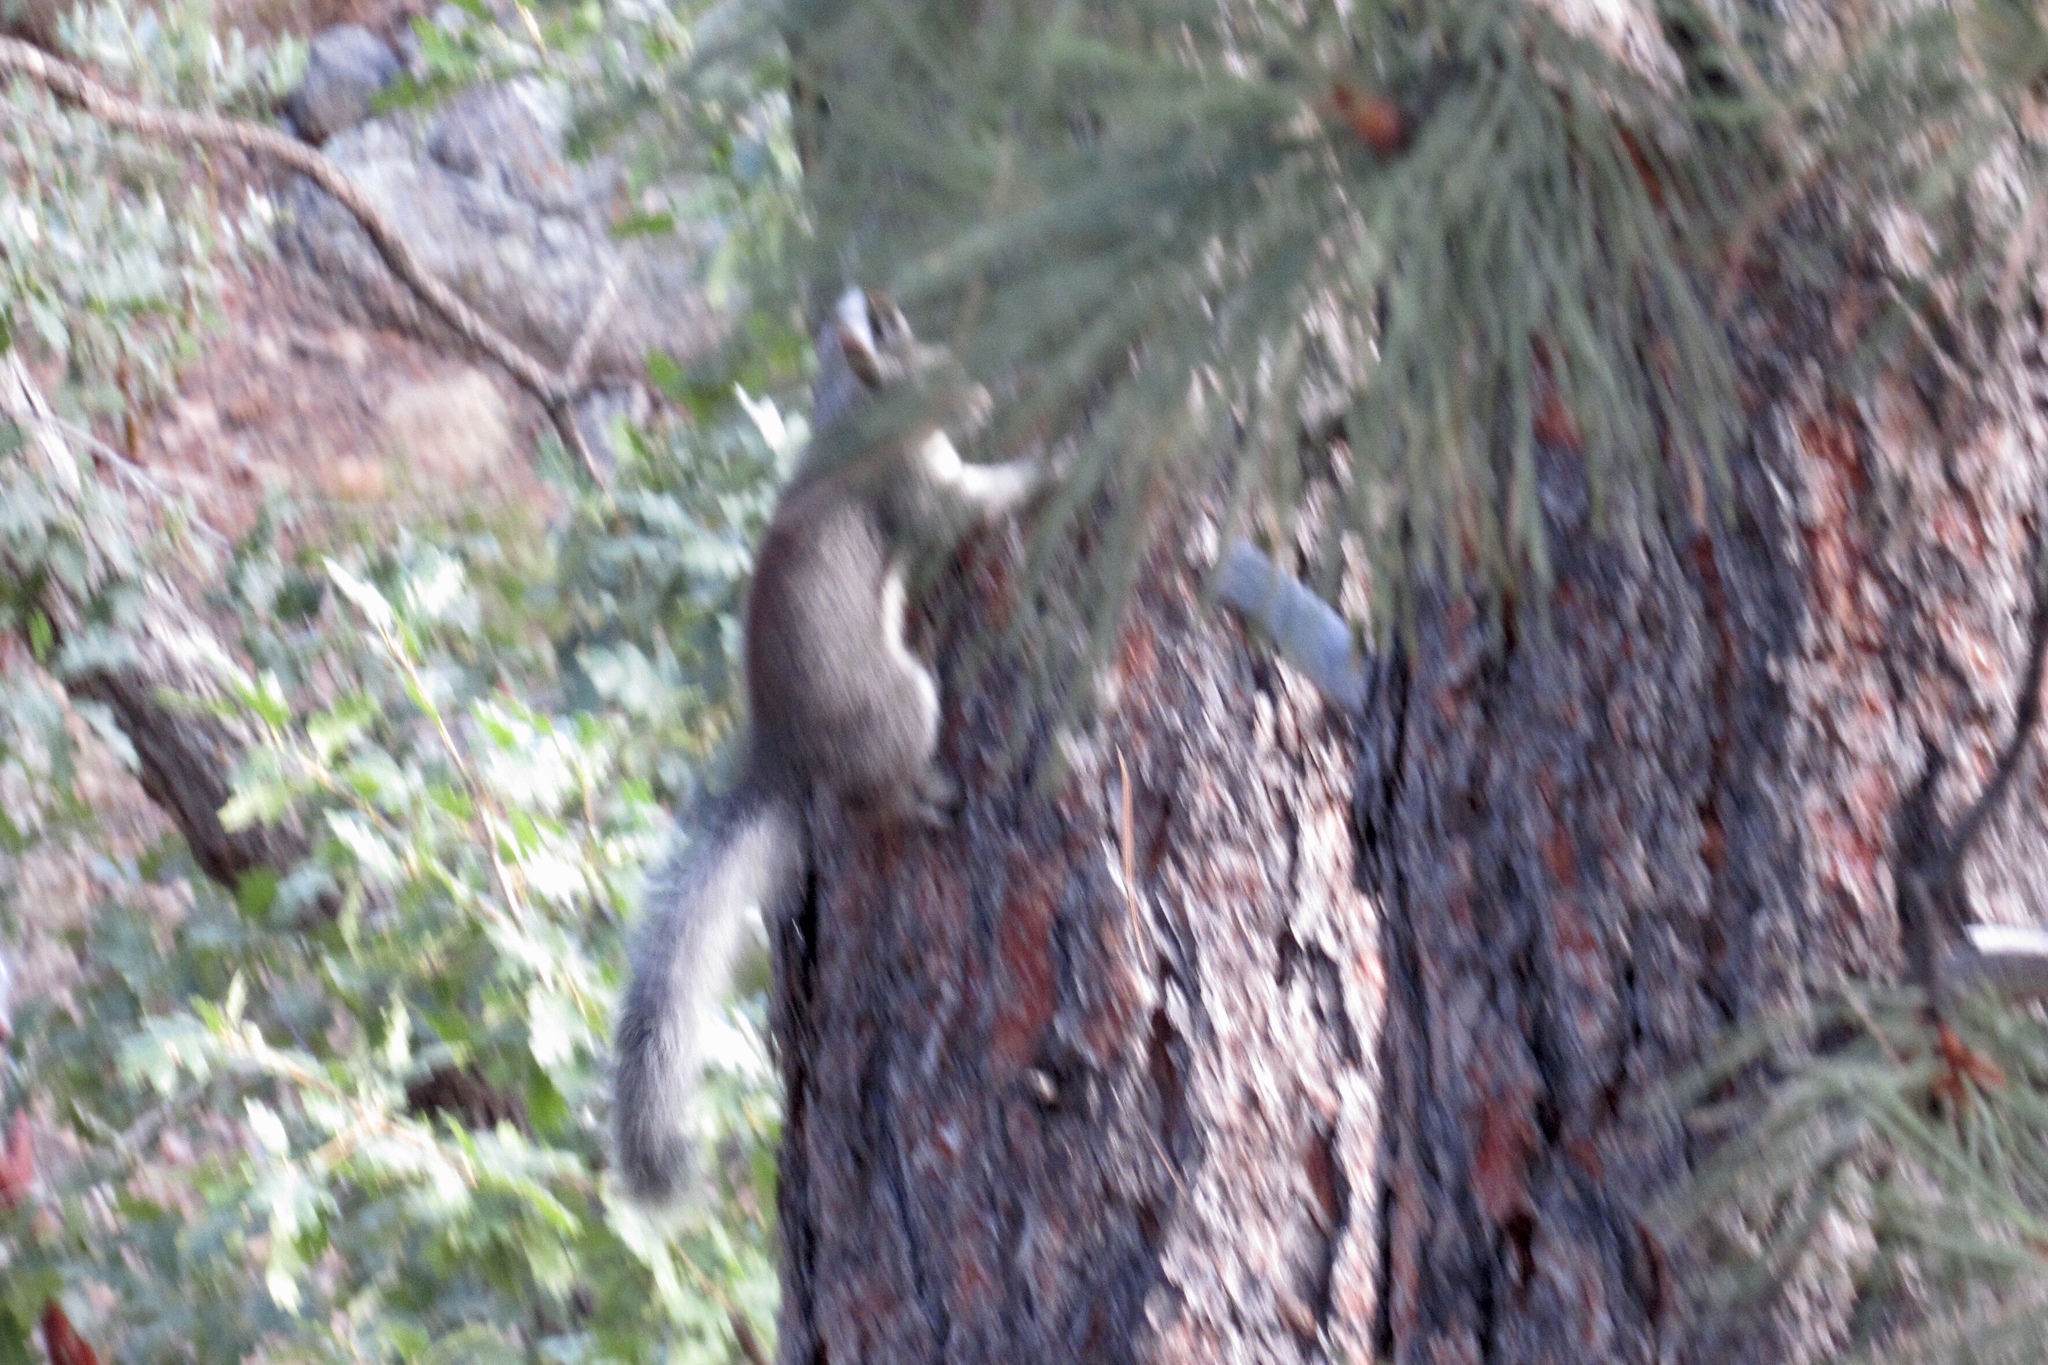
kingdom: Animalia
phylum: Chordata
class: Mammalia
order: Rodentia
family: Sciuridae
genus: Sciurus
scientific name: Sciurus aberti
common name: Abert's squirrel
